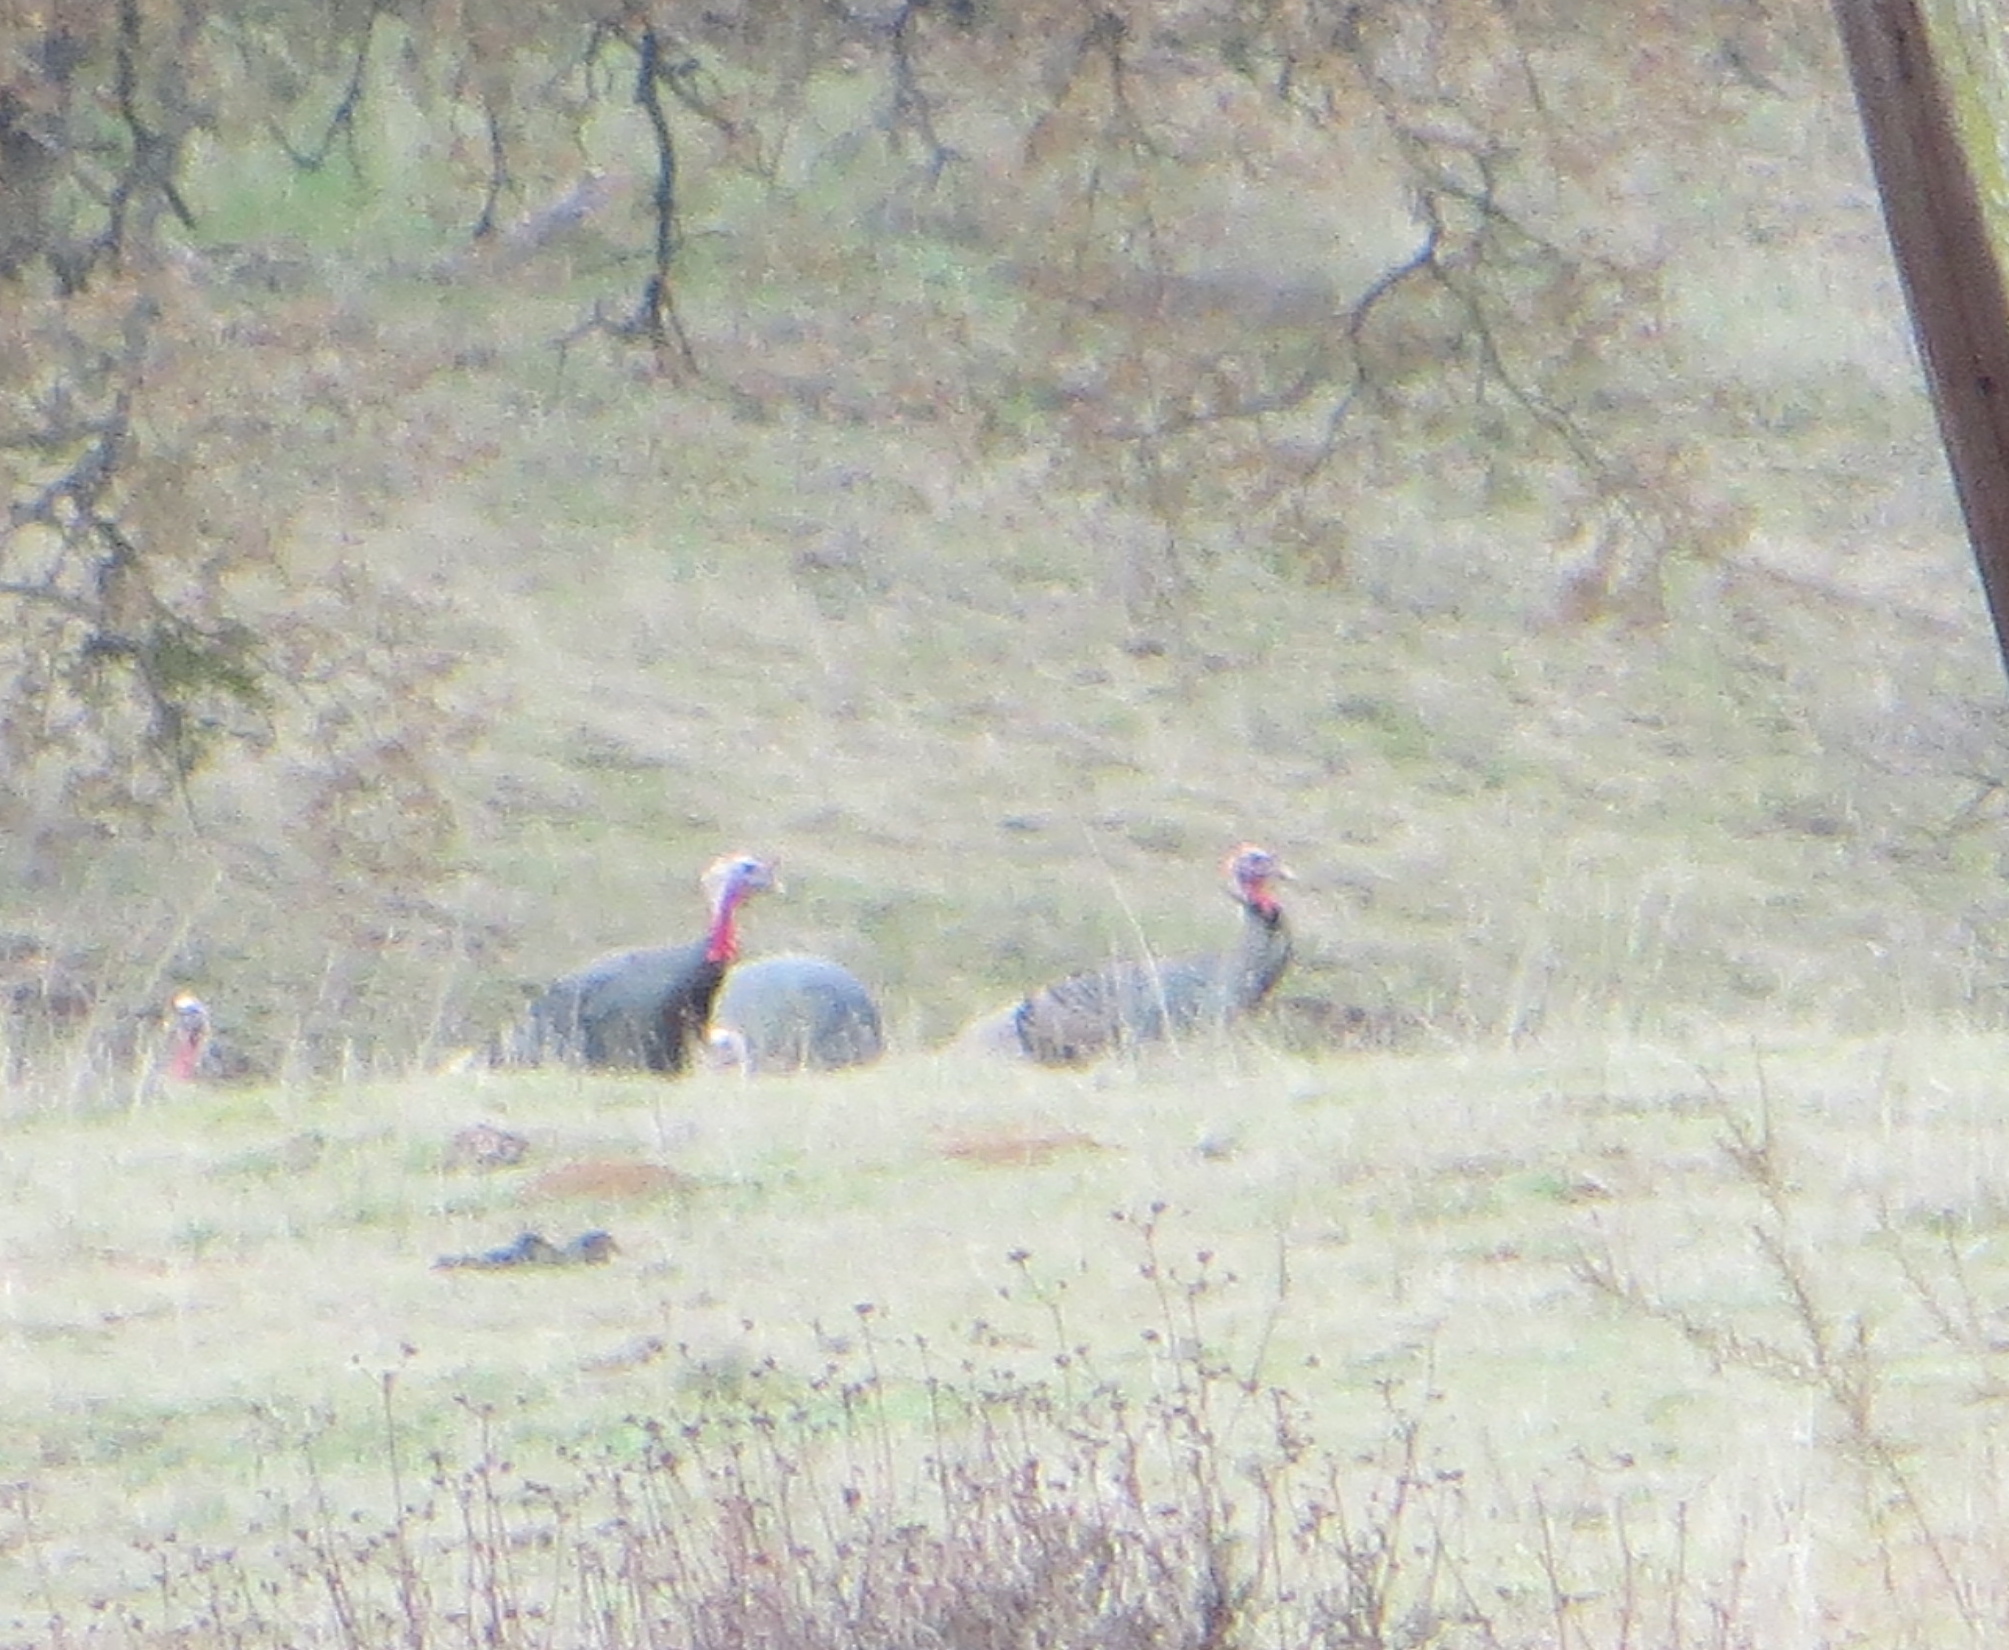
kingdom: Animalia
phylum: Chordata
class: Aves
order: Galliformes
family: Phasianidae
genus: Meleagris
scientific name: Meleagris gallopavo
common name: Wild turkey
